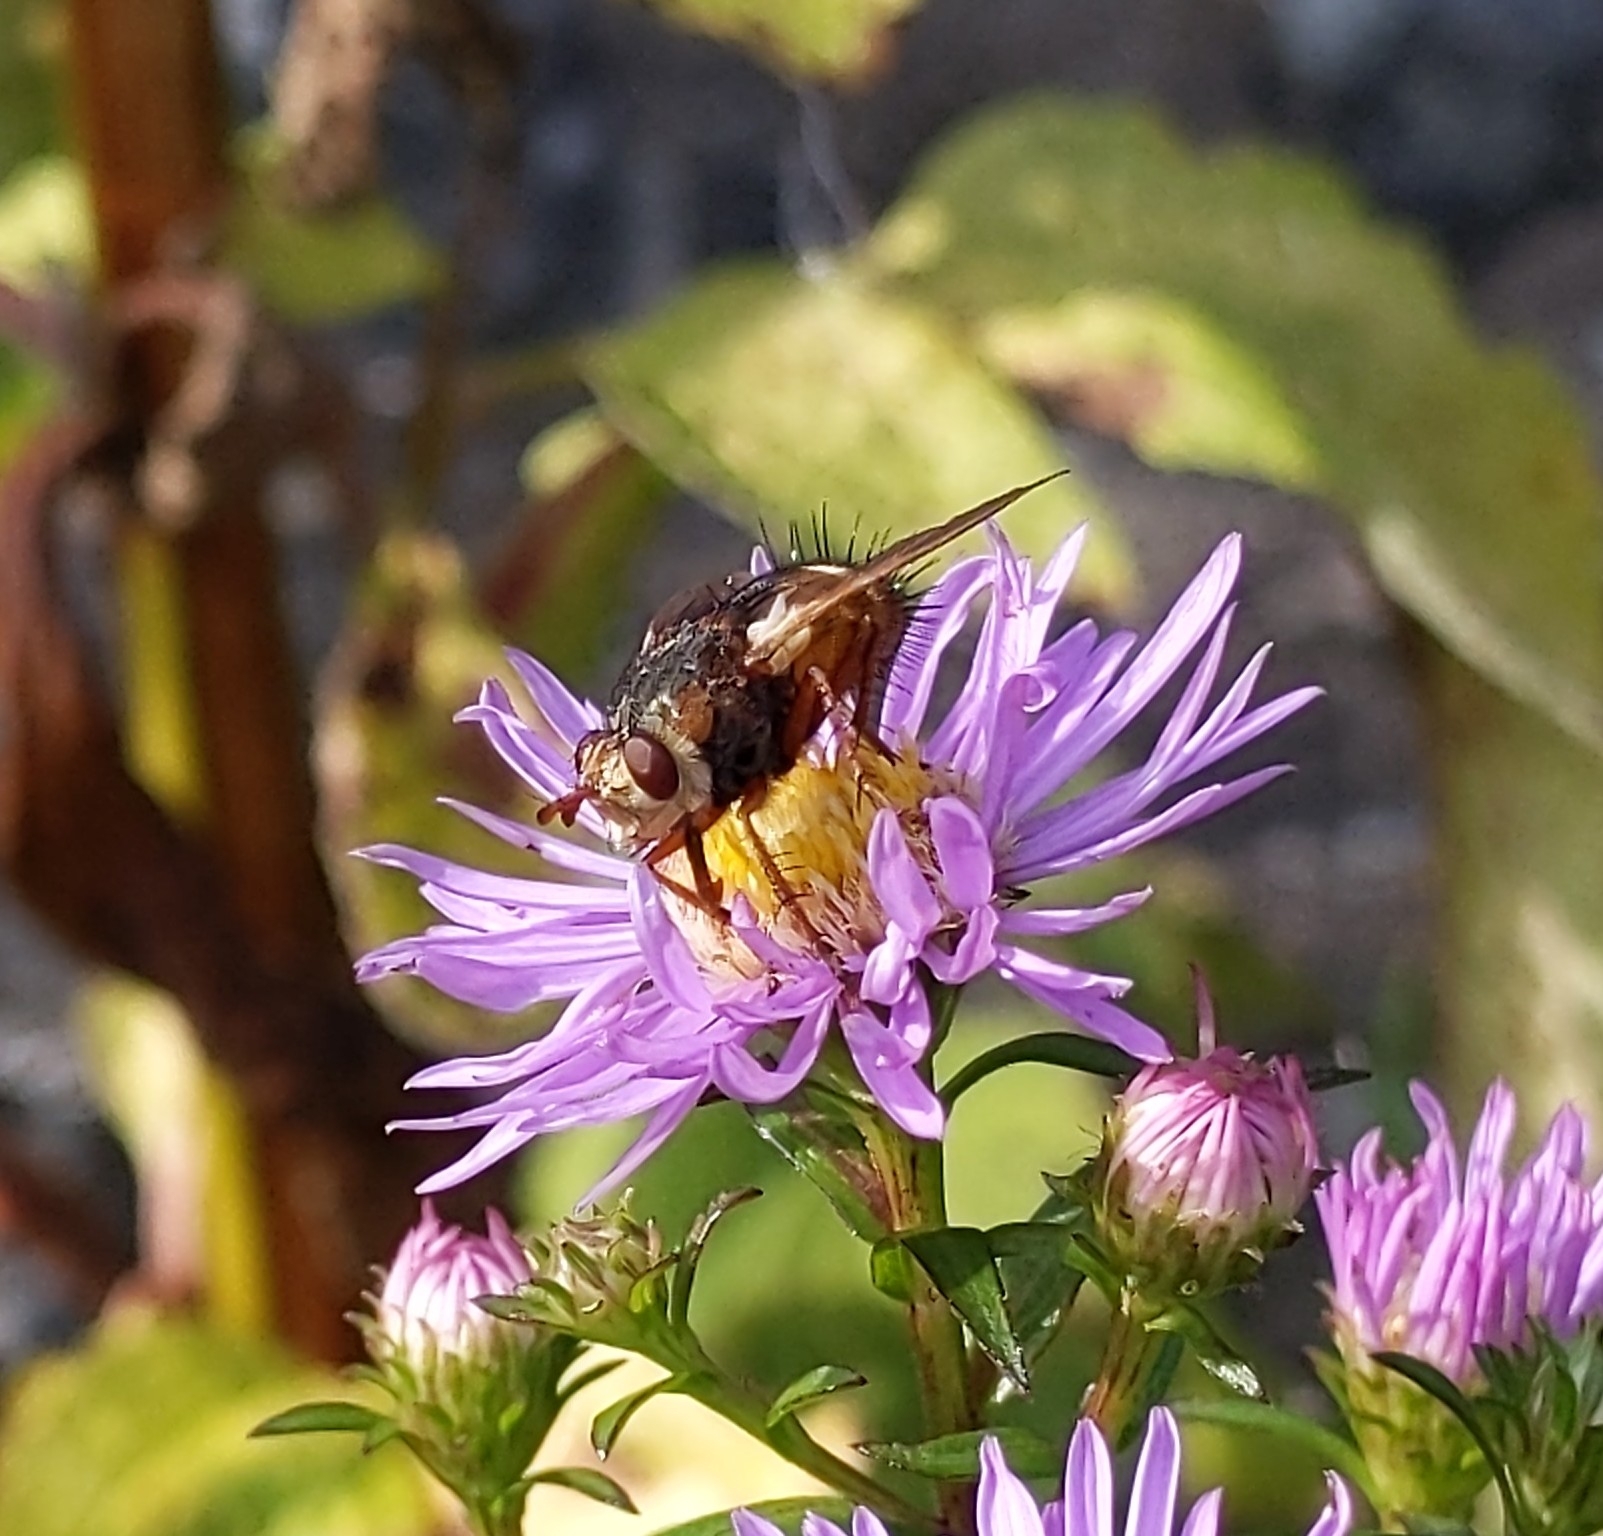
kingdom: Animalia
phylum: Arthropoda
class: Insecta
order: Diptera
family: Tachinidae
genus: Tachina
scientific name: Tachina fera
